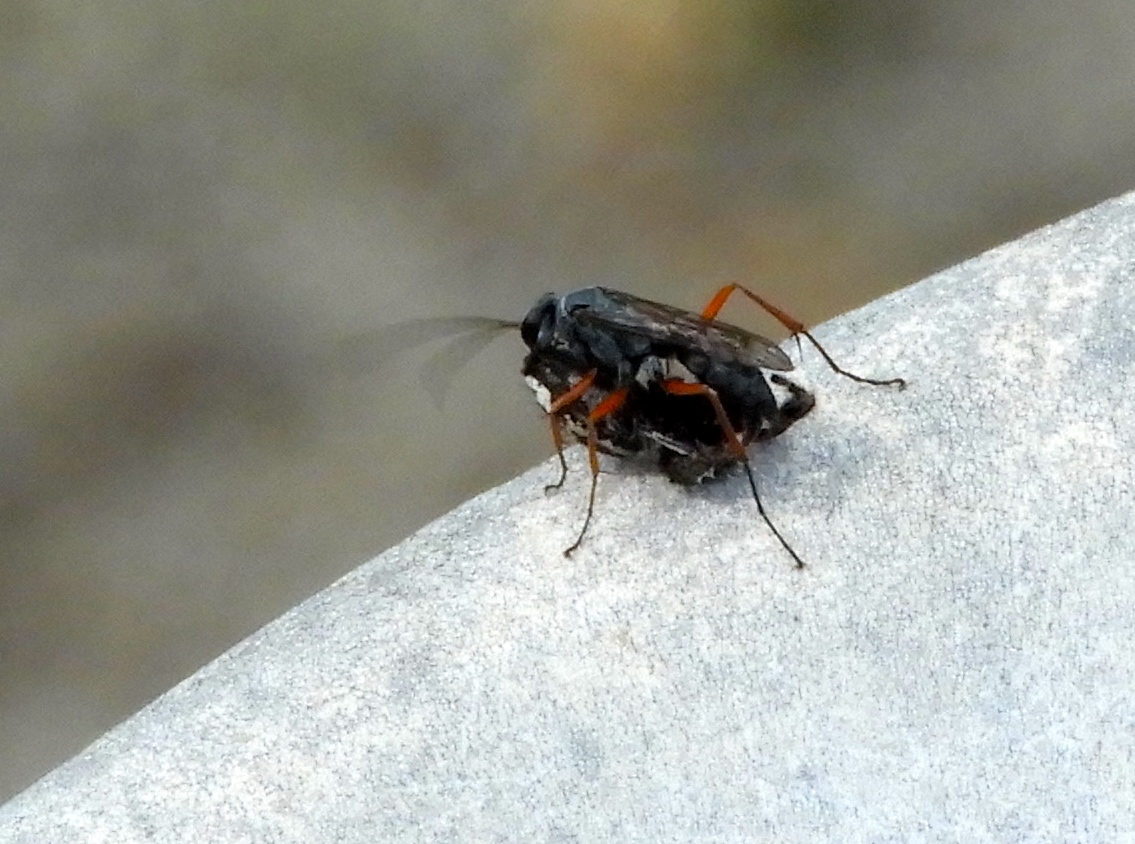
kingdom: Animalia
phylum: Arthropoda
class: Insecta
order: Hymenoptera
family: Pompilidae
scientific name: Pompilidae
